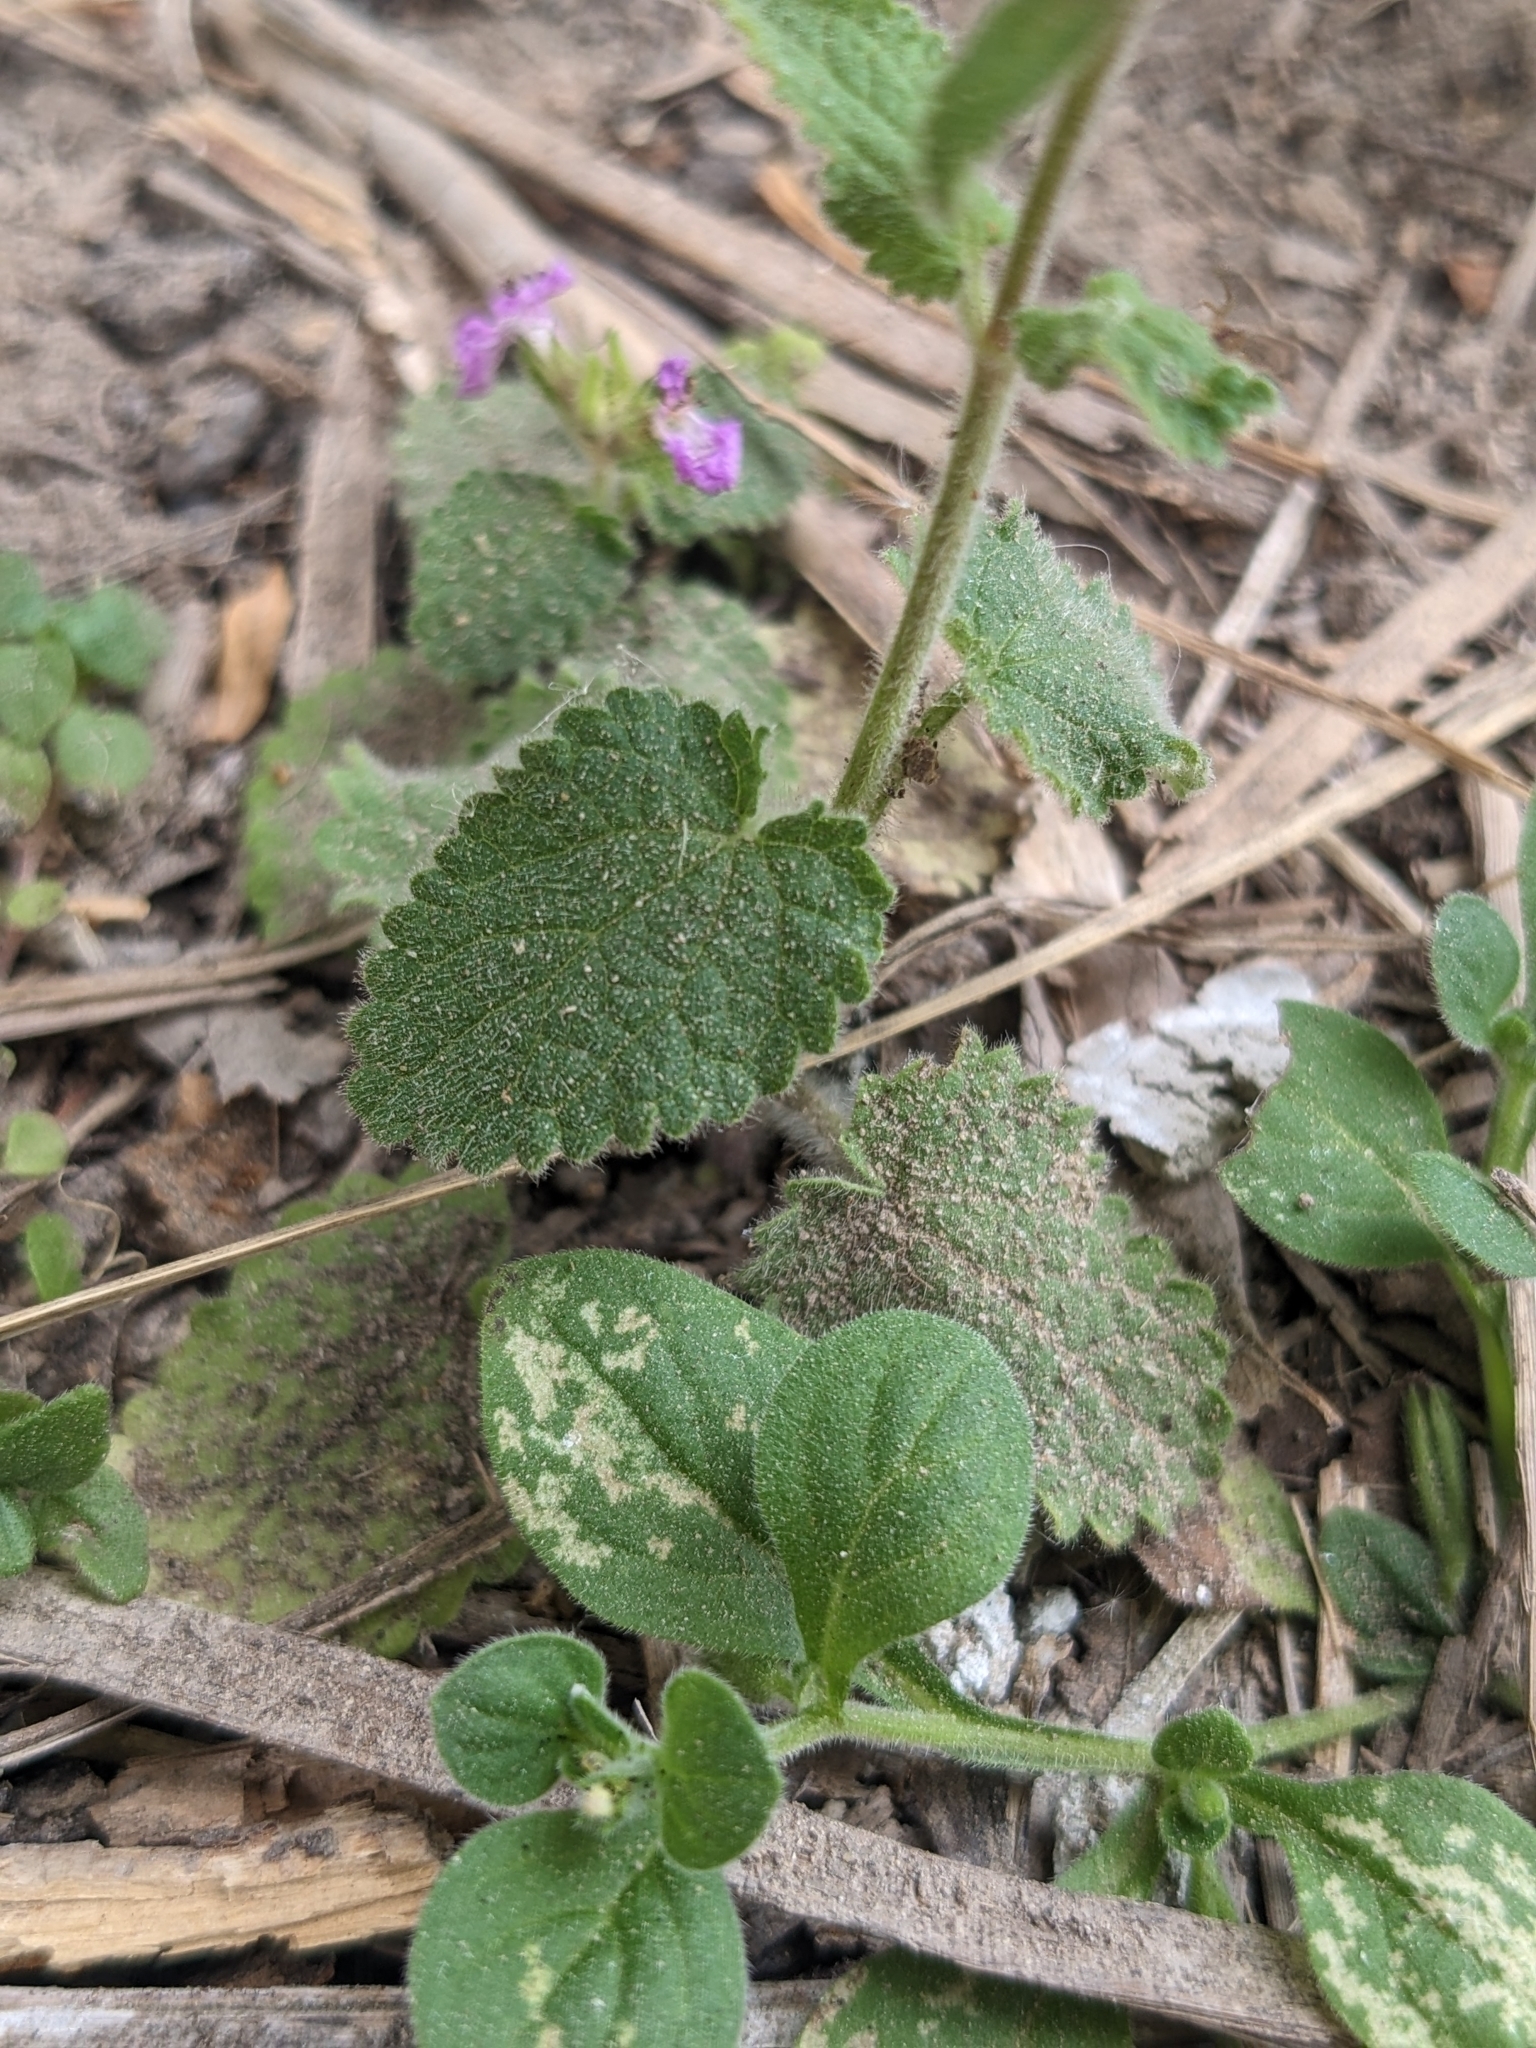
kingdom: Plantae
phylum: Tracheophyta
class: Magnoliopsida
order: Lamiales
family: Lamiaceae
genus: Stachys
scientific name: Stachys drummondii
